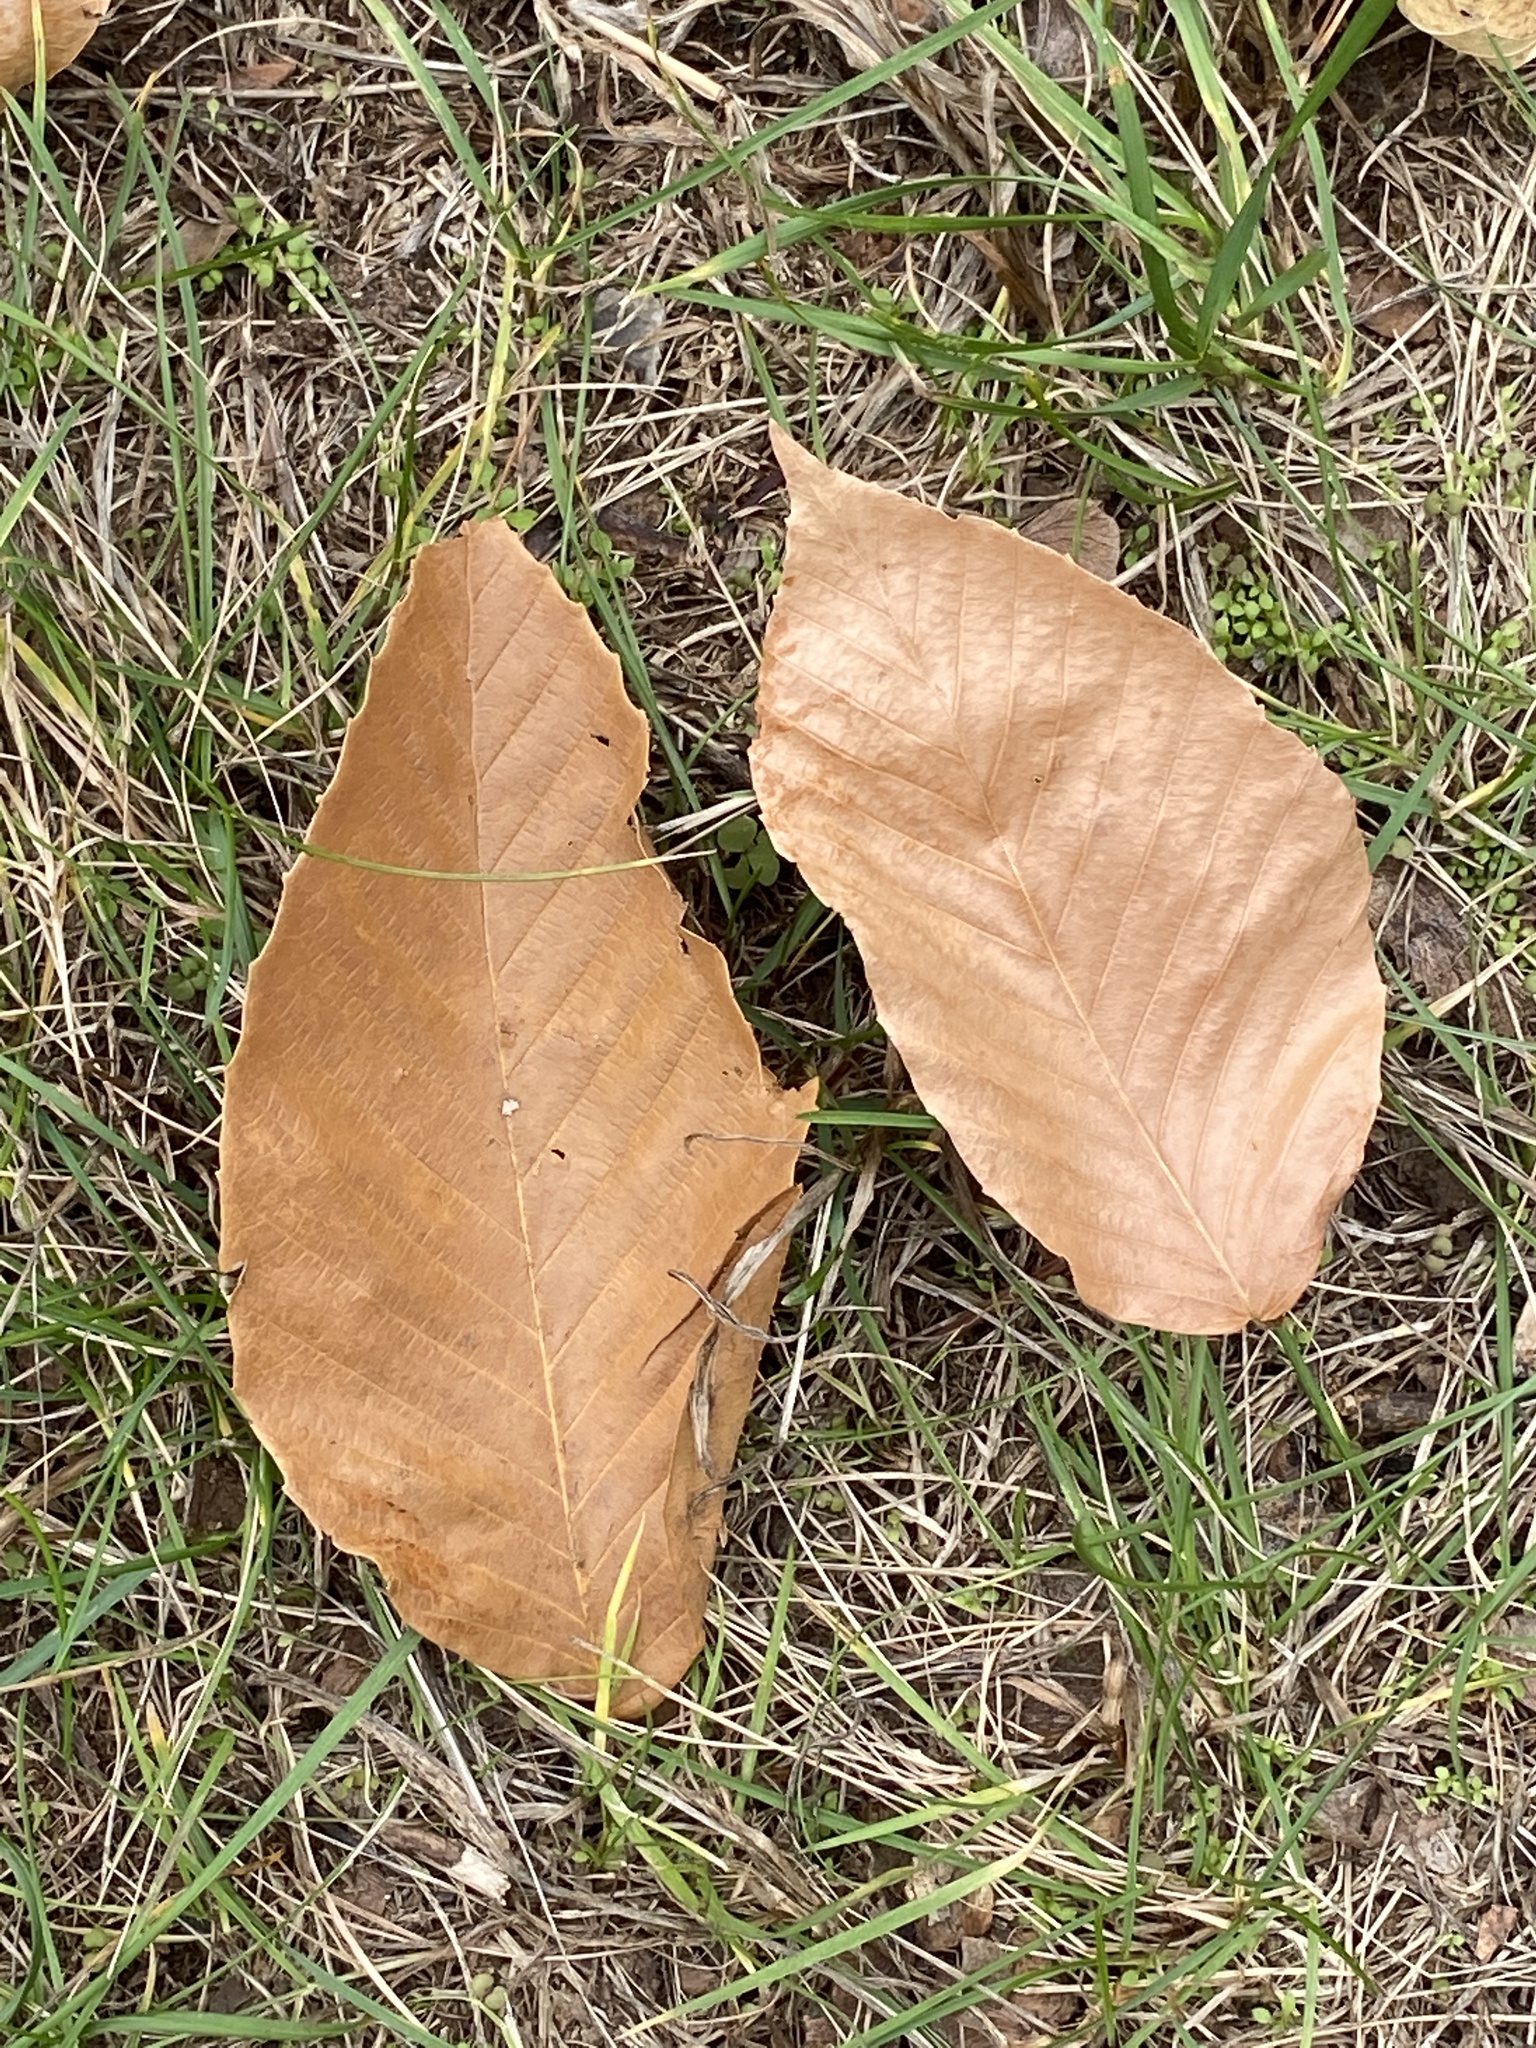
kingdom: Plantae
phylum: Tracheophyta
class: Magnoliopsida
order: Fagales
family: Fagaceae
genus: Fagus
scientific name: Fagus grandifolia
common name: American beech
